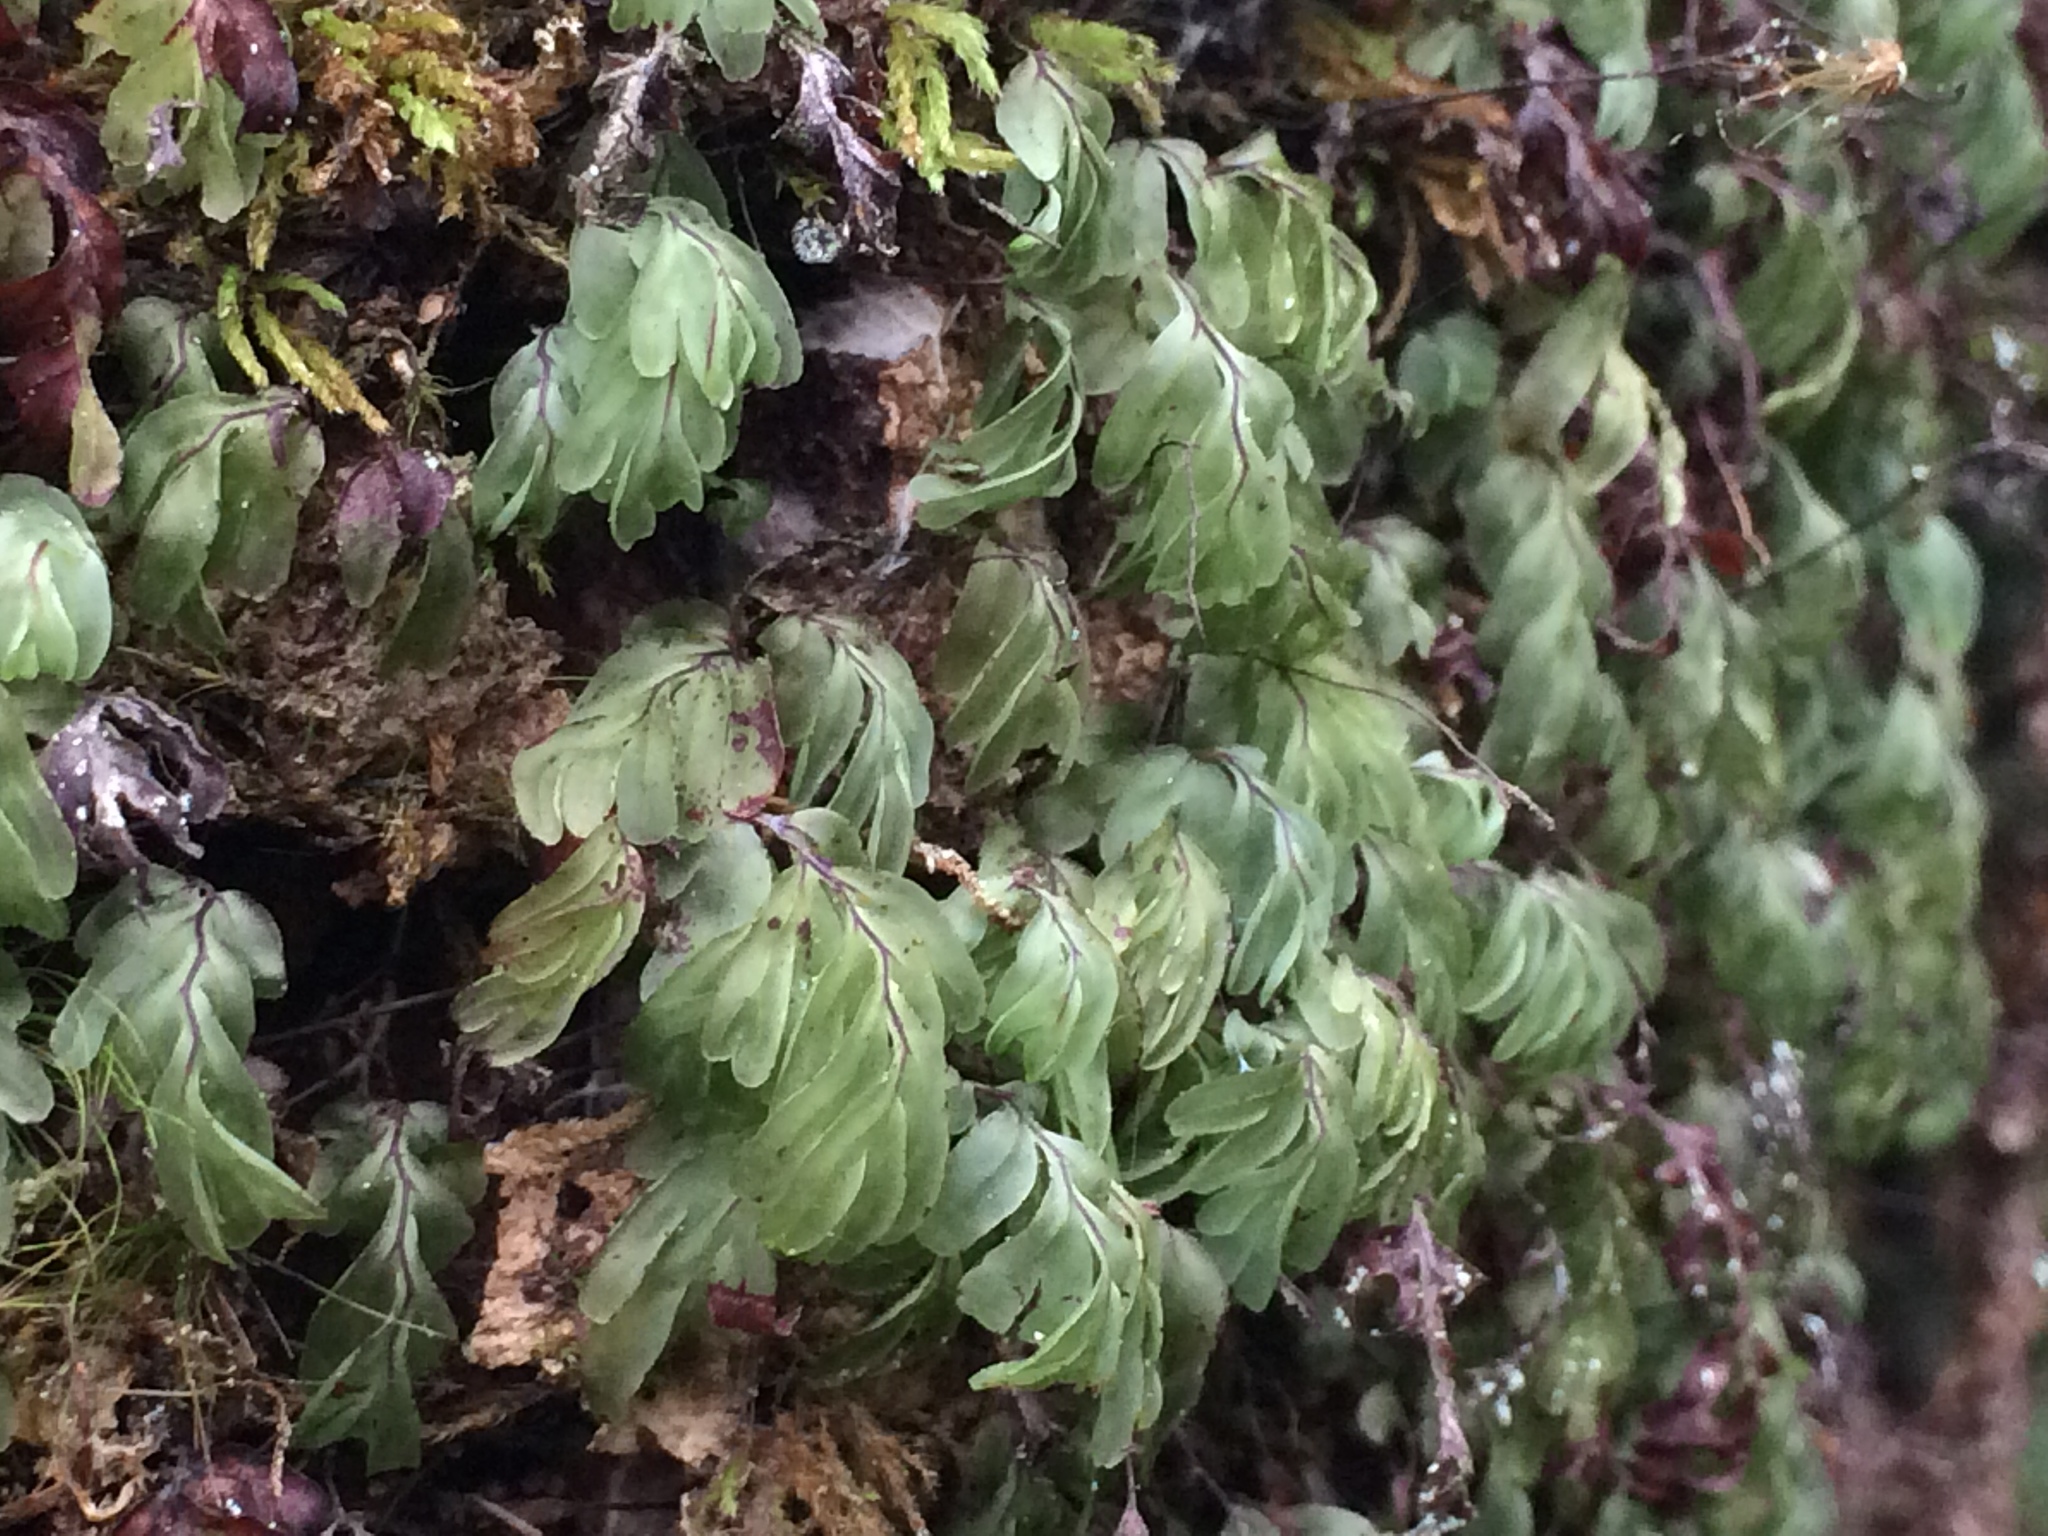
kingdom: Plantae
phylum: Tracheophyta
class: Polypodiopsida
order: Hymenophyllales
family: Hymenophyllaceae
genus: Hymenophyllum
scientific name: Hymenophyllum rarum
